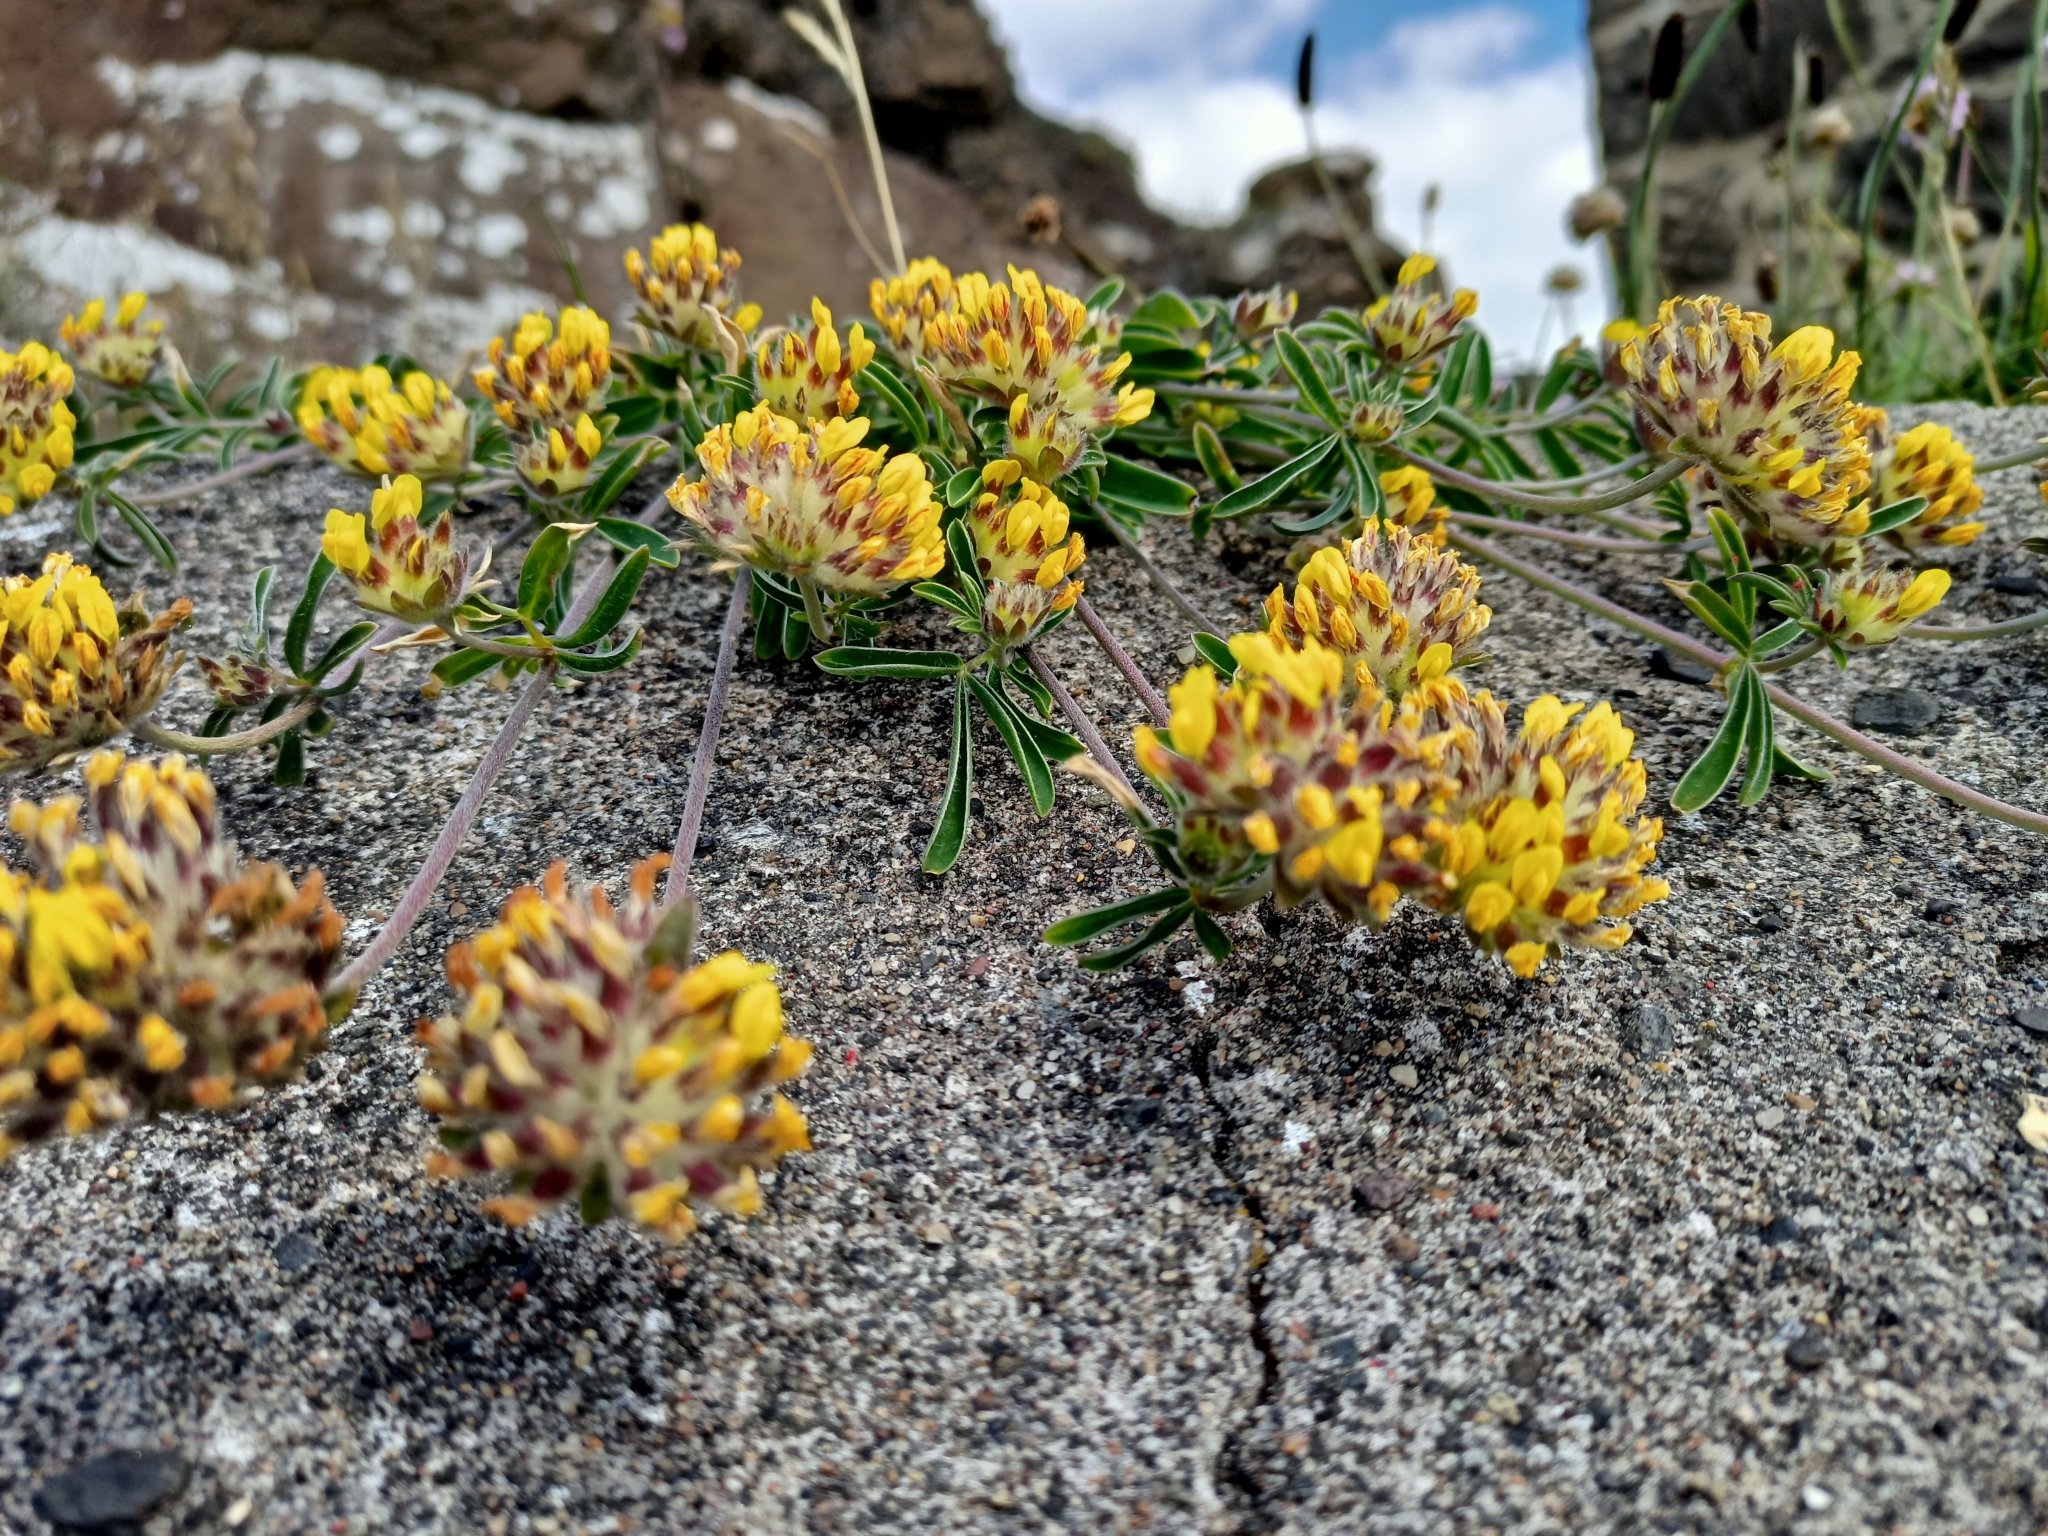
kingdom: Plantae
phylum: Tracheophyta
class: Magnoliopsida
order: Fabales
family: Fabaceae
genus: Anthyllis
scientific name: Anthyllis vulneraria
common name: Kidney vetch
